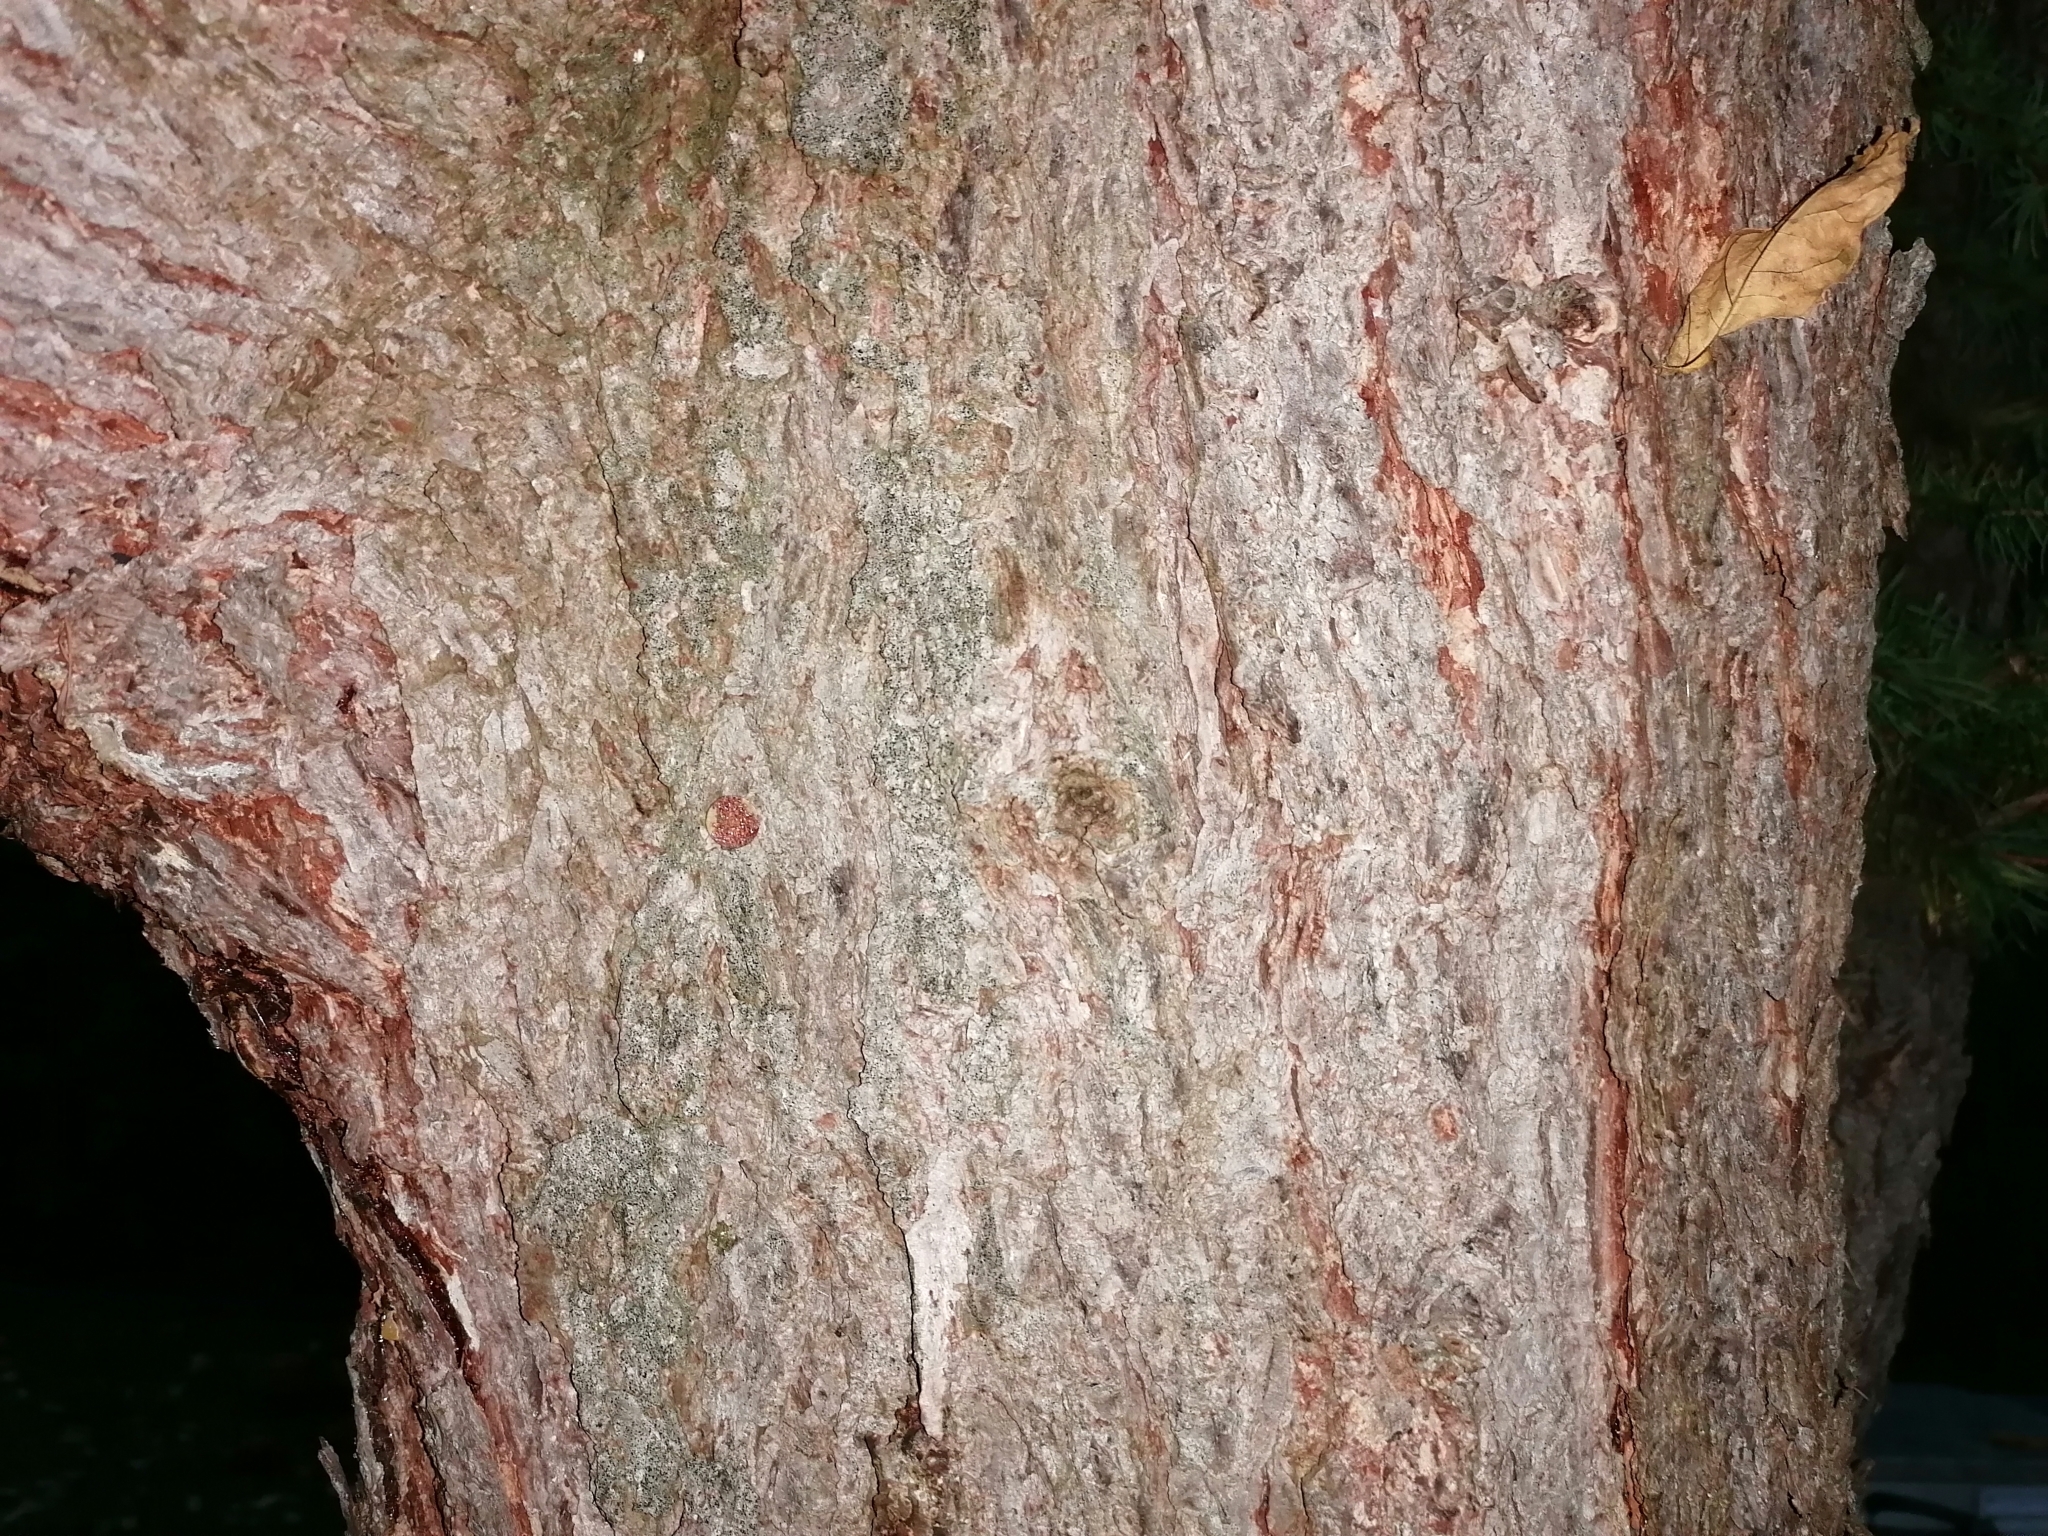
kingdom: Plantae
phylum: Tracheophyta
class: Pinopsida
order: Pinales
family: Pinaceae
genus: Larix
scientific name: Larix decidua
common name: European larch
